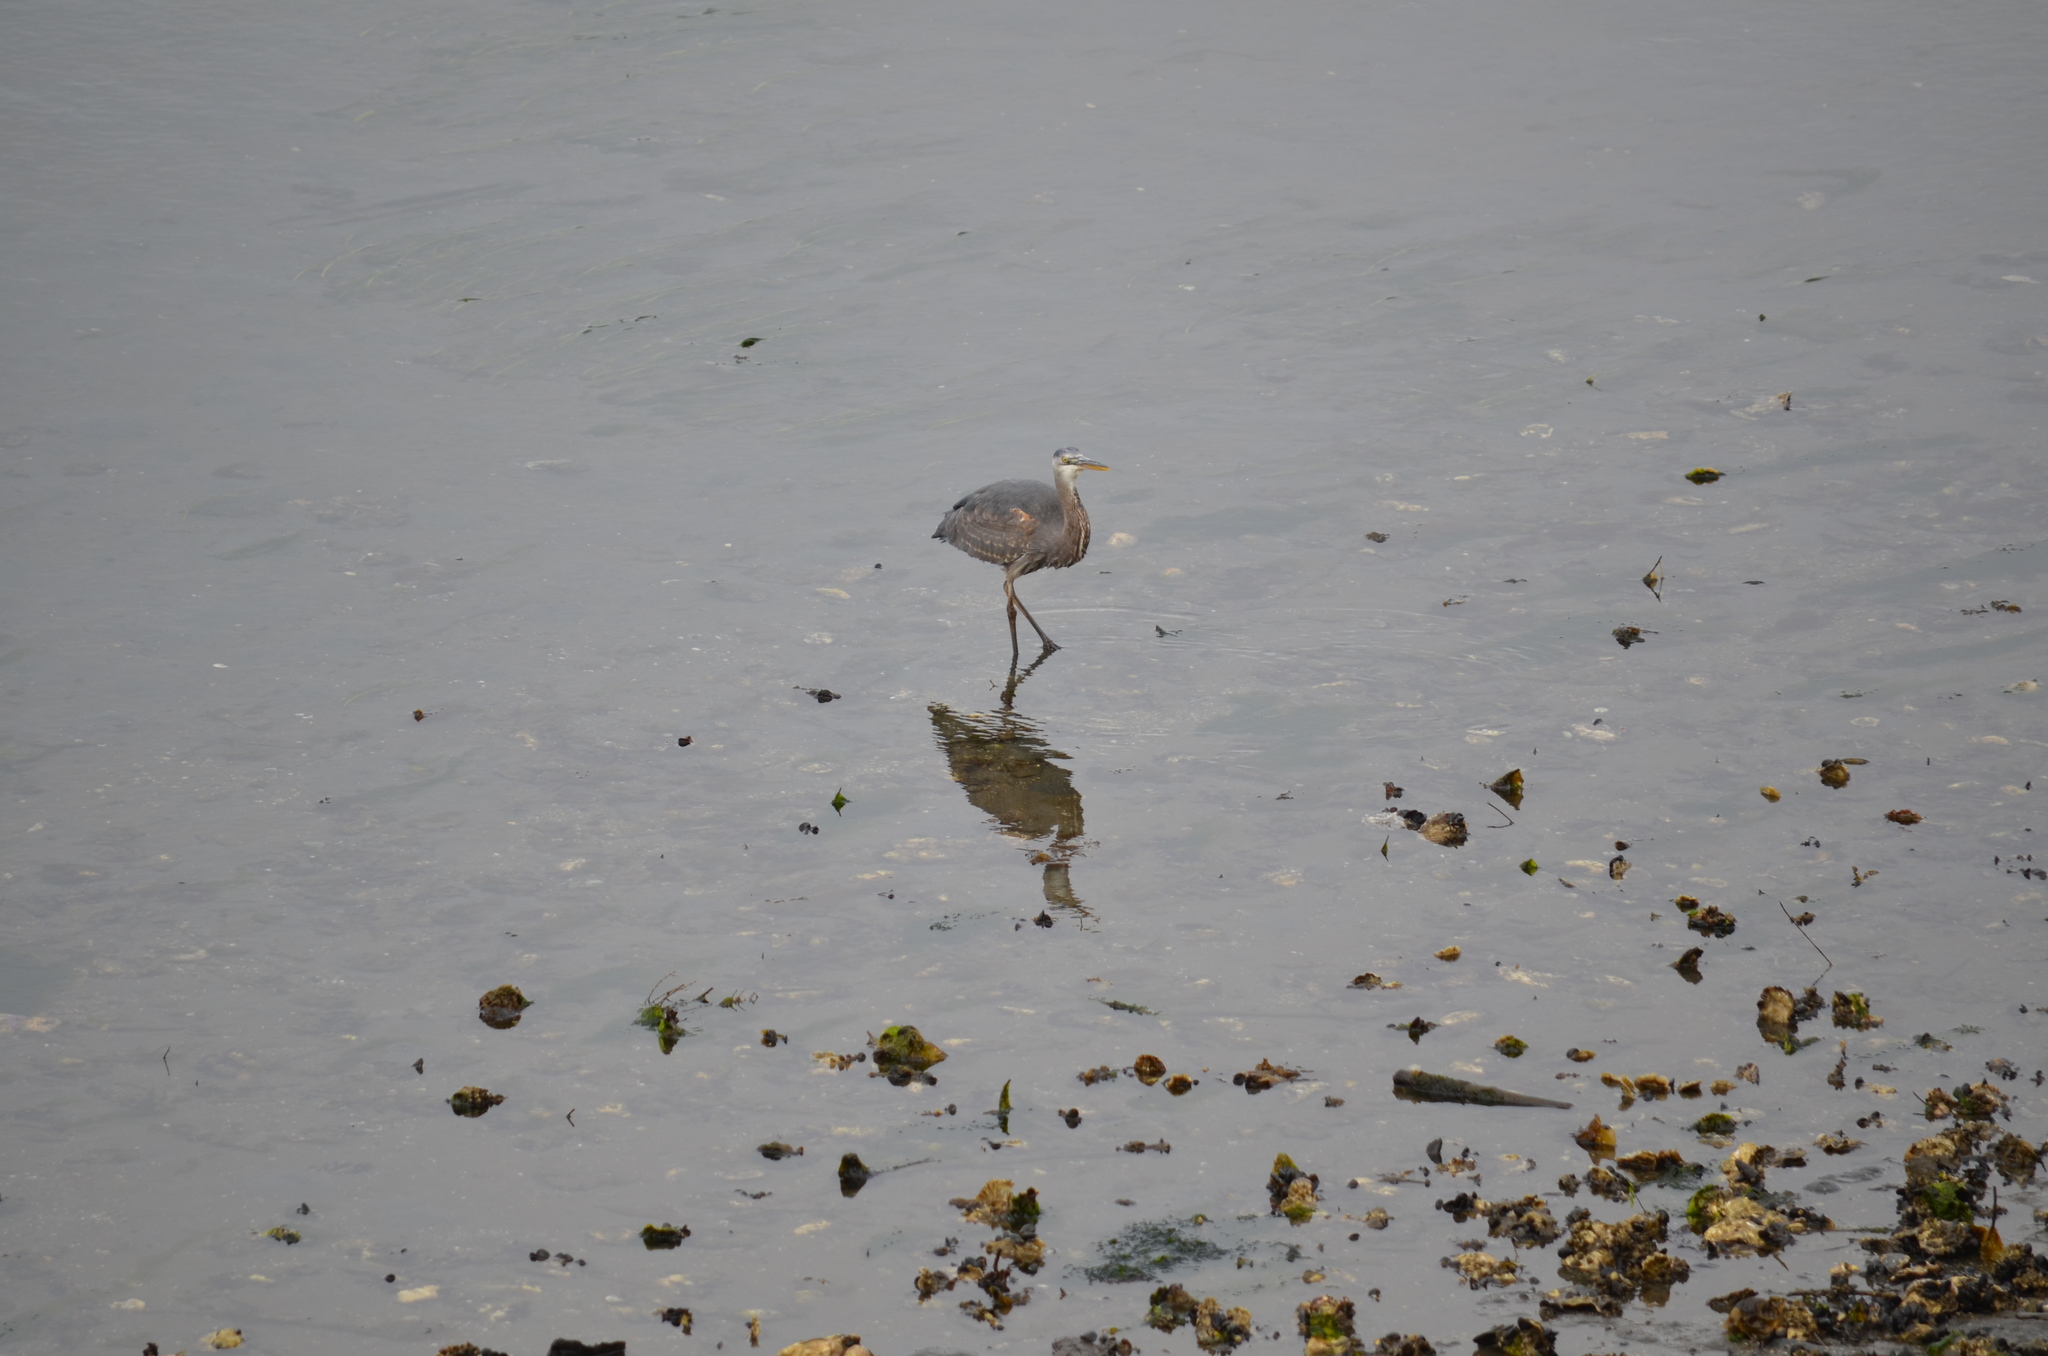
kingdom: Animalia
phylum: Chordata
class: Aves
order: Pelecaniformes
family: Ardeidae
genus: Ardea
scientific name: Ardea herodias
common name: Great blue heron
